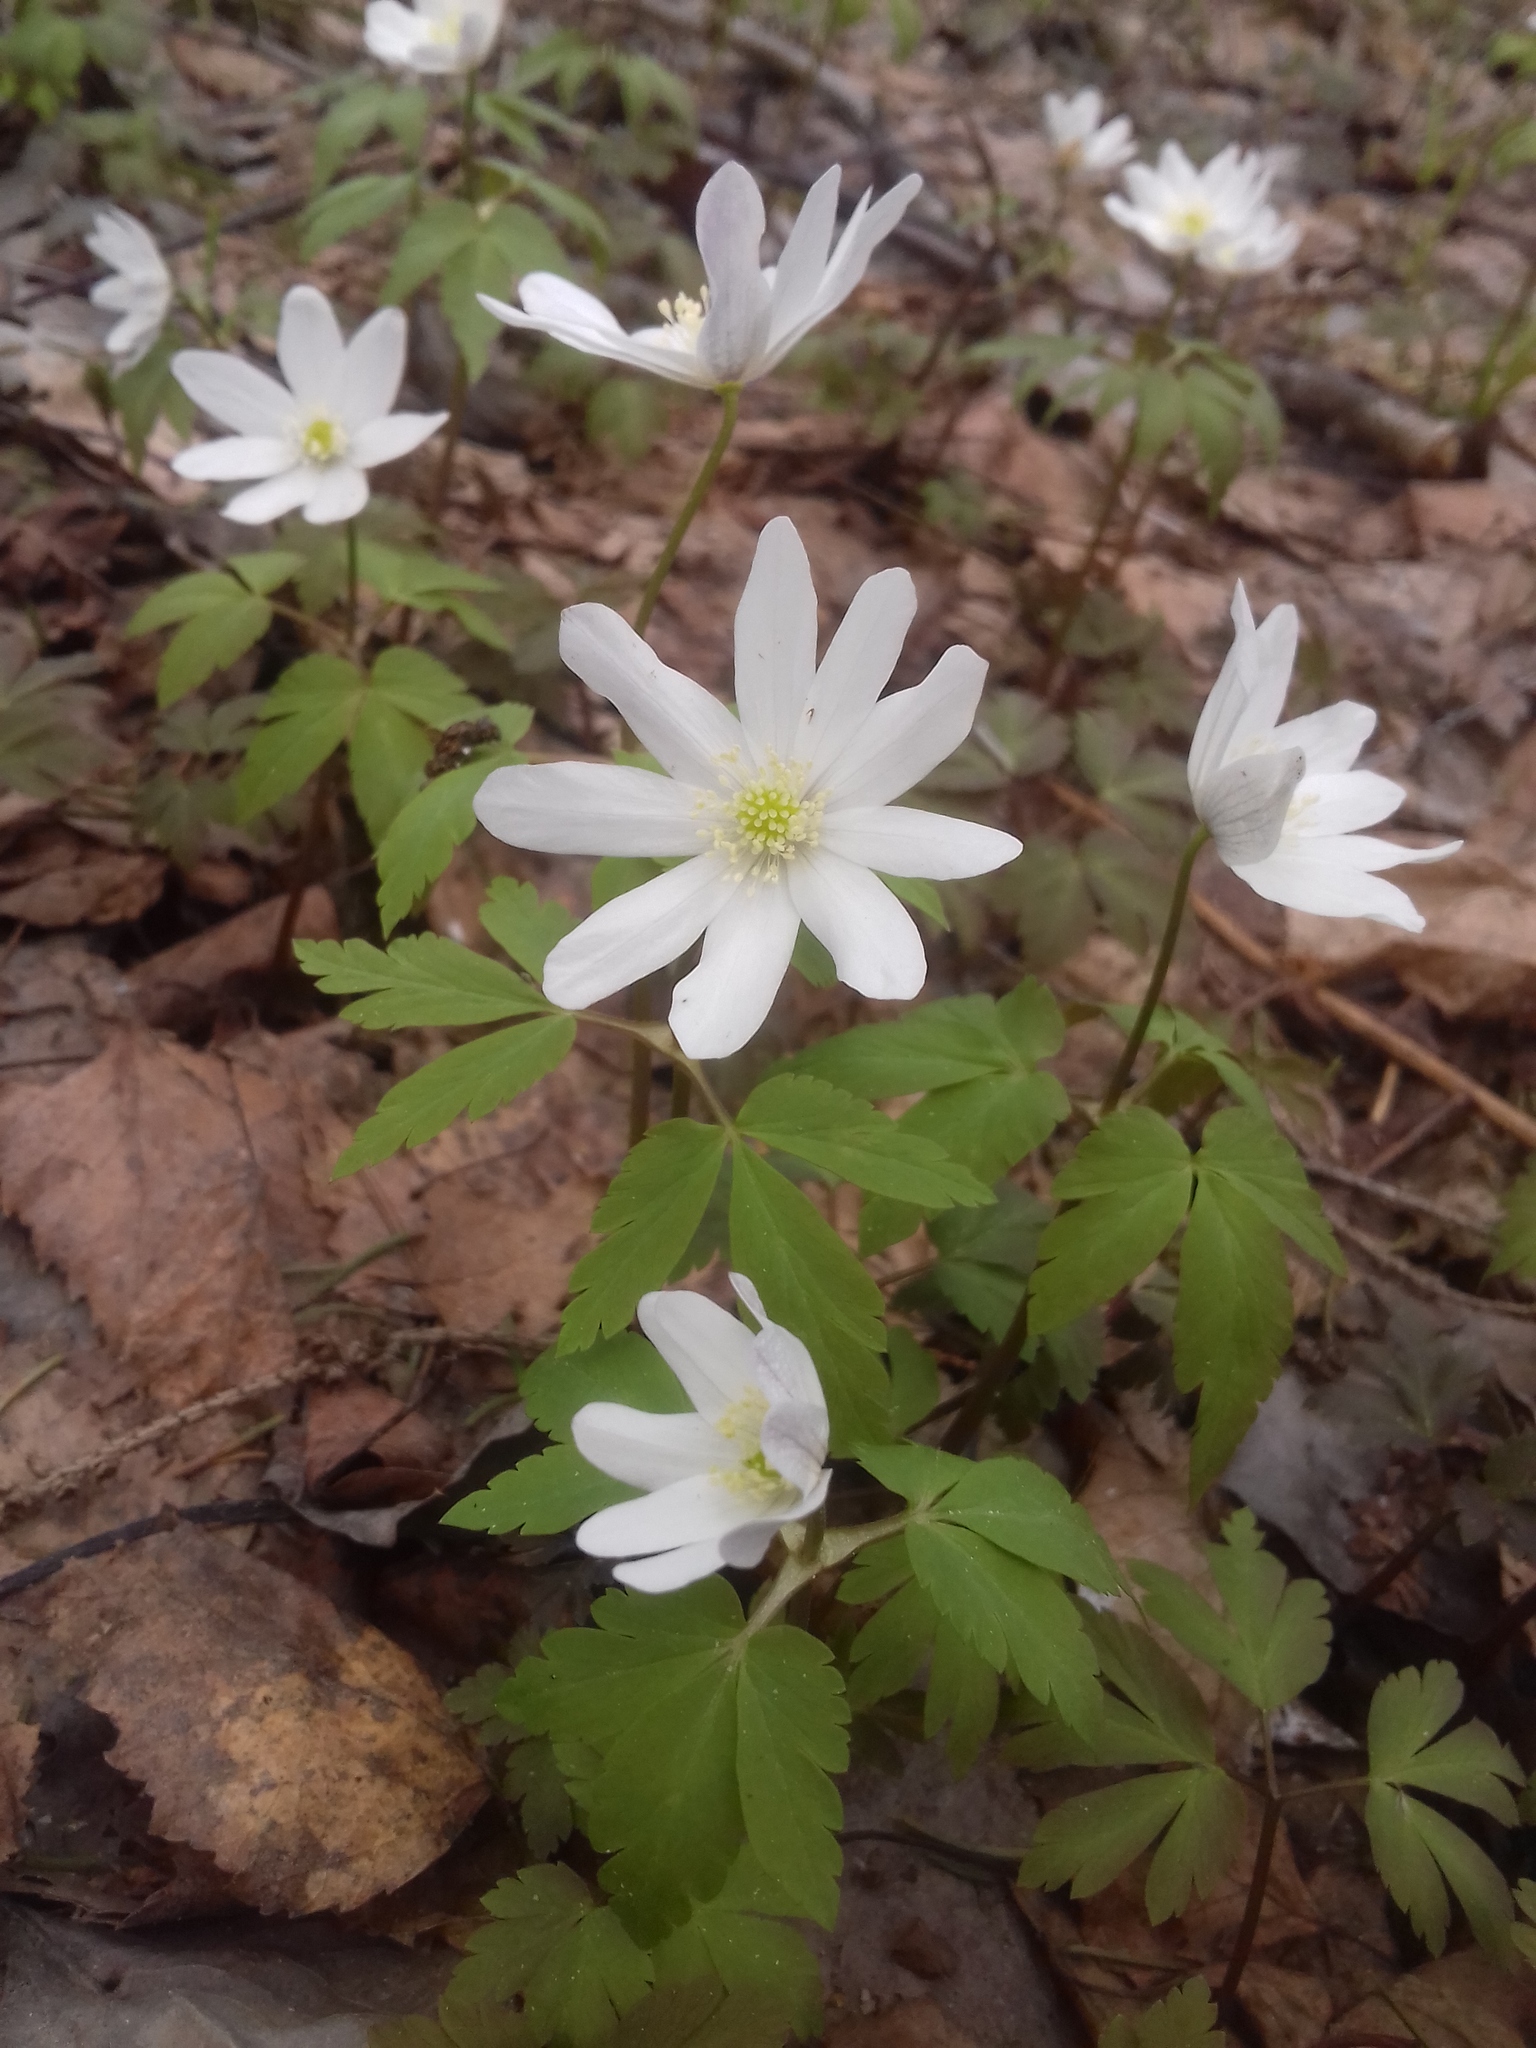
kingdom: Plantae
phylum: Tracheophyta
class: Magnoliopsida
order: Ranunculales
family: Ranunculaceae
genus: Anemone
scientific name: Anemone altaica
